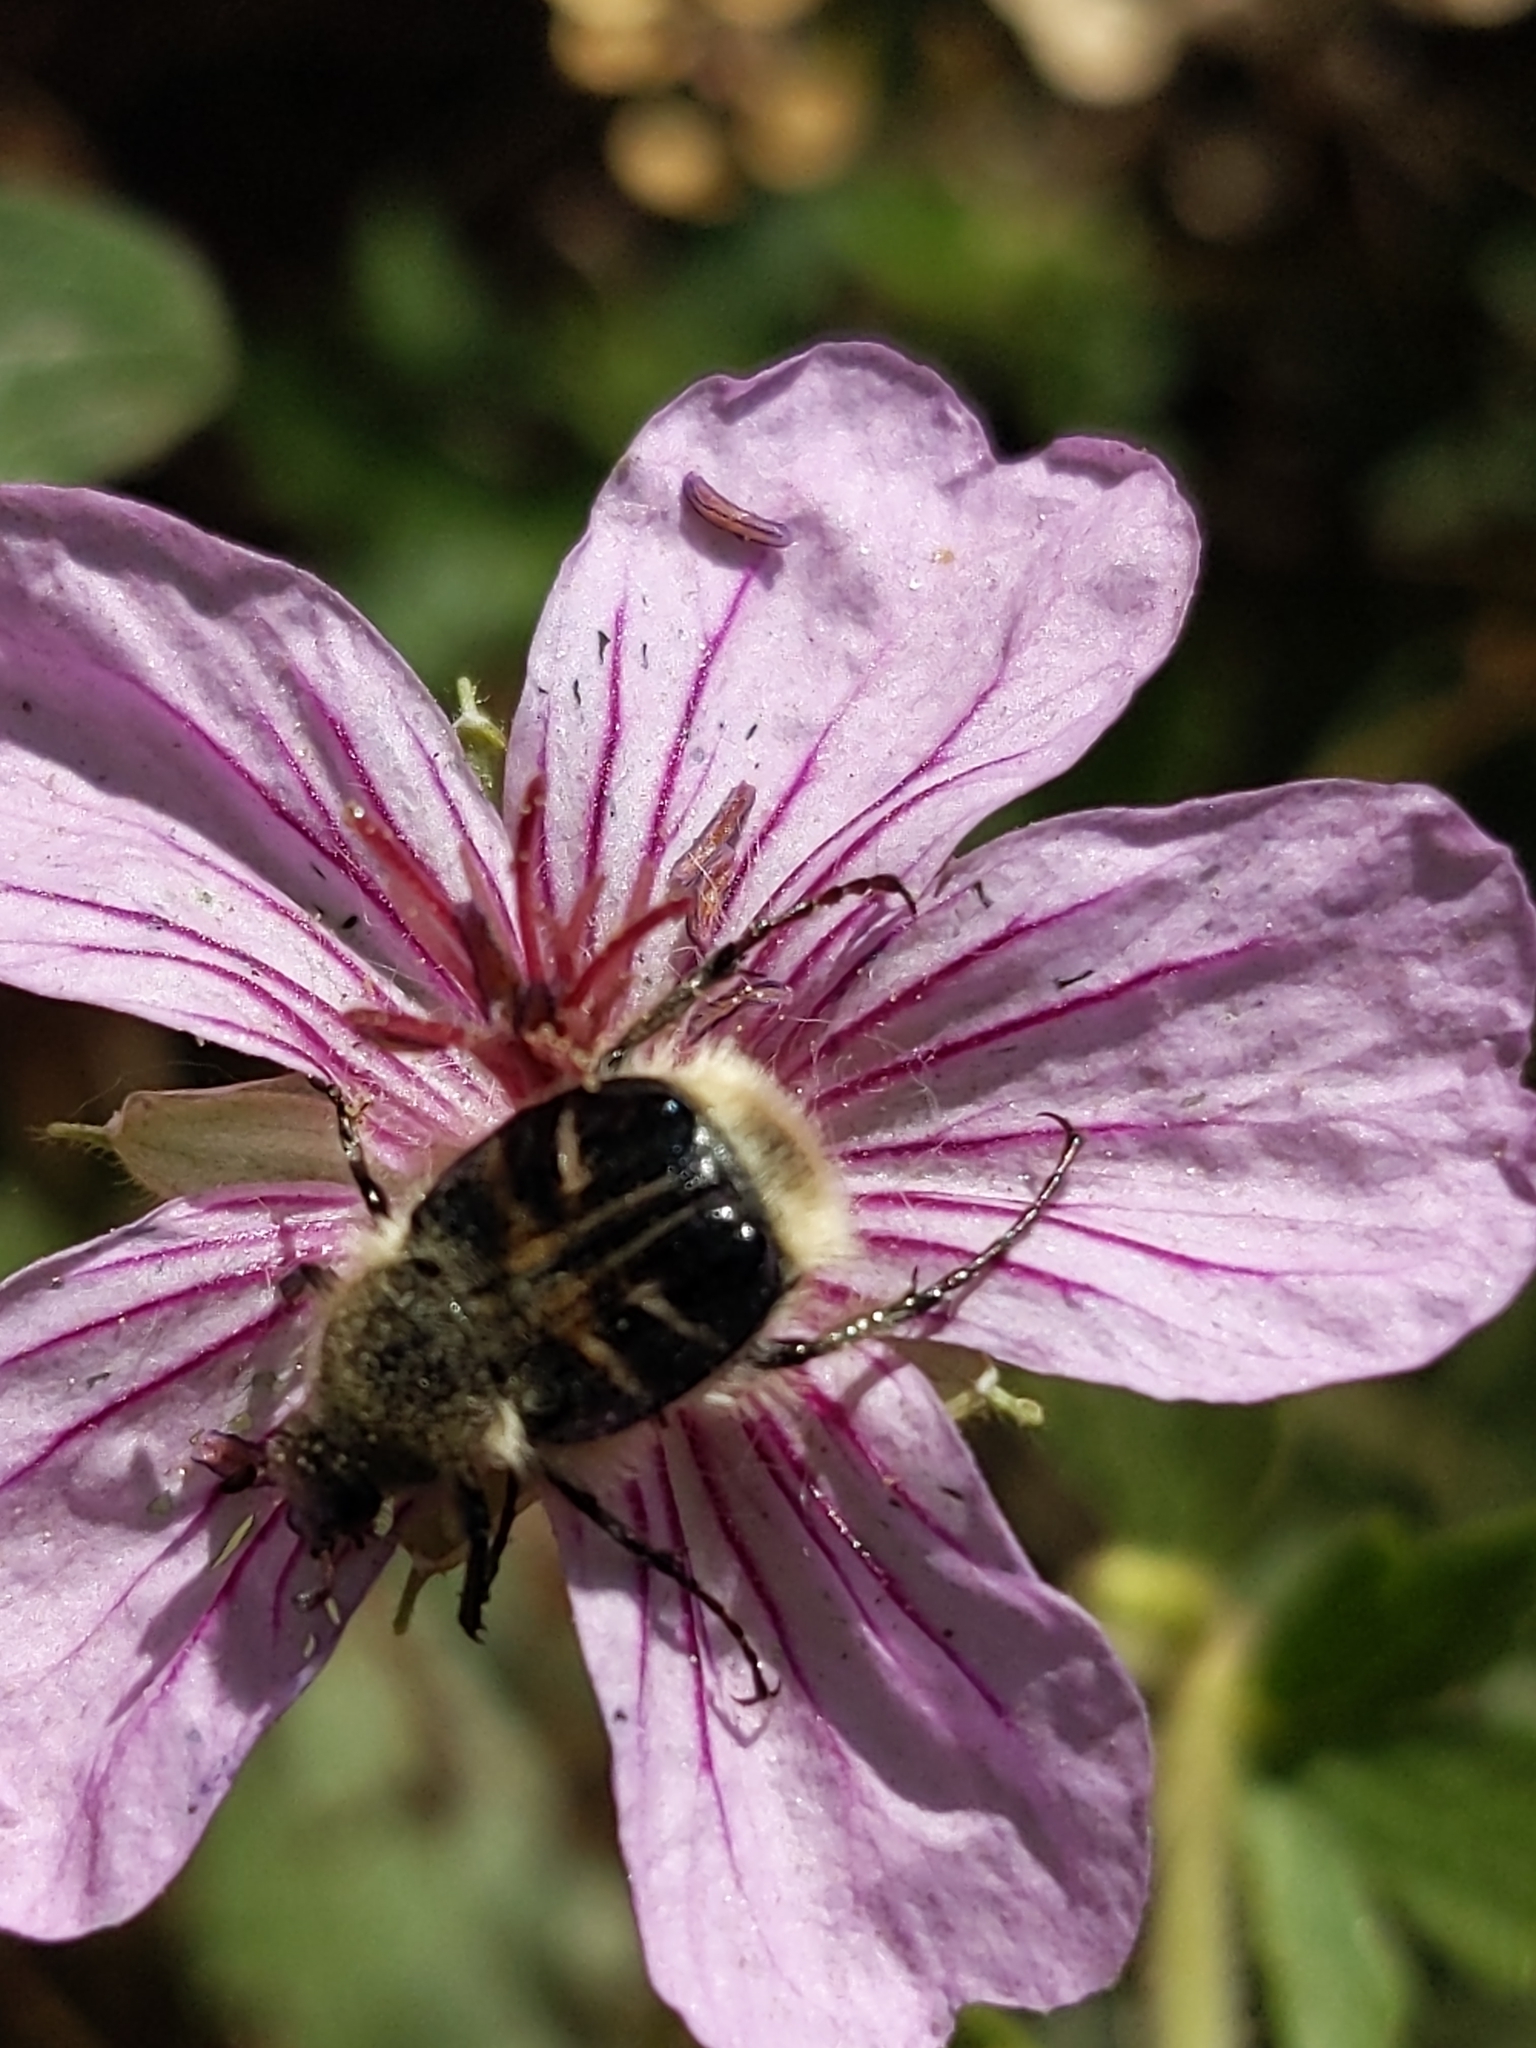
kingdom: Animalia
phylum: Arthropoda
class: Insecta
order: Coleoptera
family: Scarabaeidae
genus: Trichiotinus
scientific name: Trichiotinus assimilis
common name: Bee-mimic beetle
